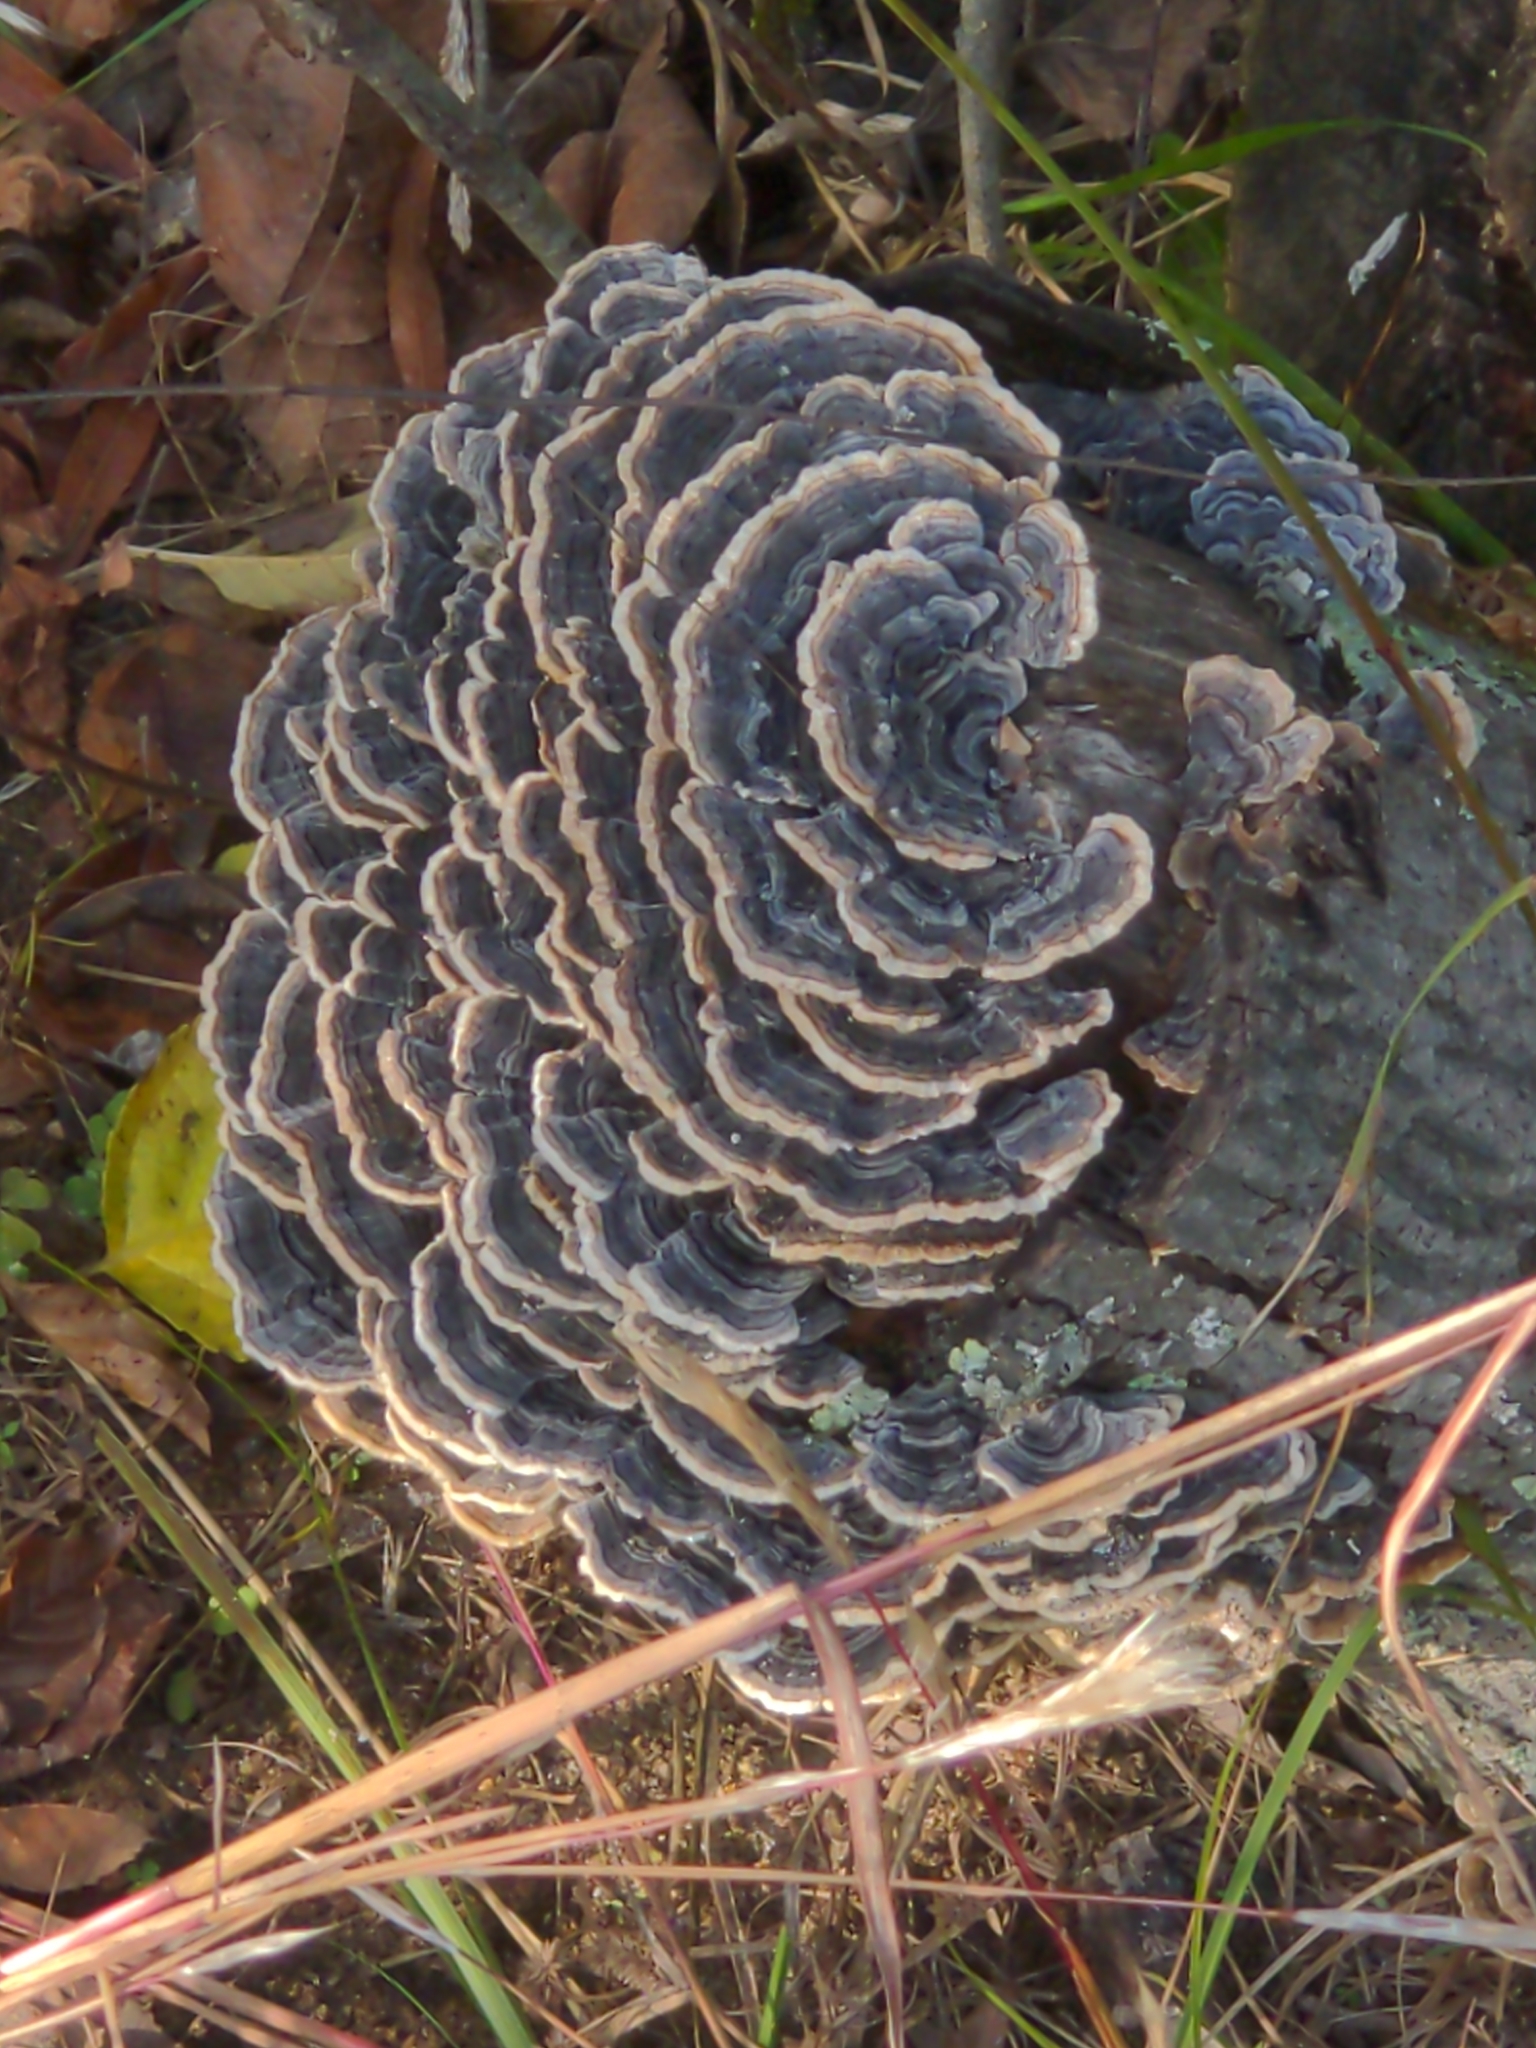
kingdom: Fungi
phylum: Basidiomycota
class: Agaricomycetes
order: Polyporales
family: Polyporaceae
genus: Trametes
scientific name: Trametes versicolor
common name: Turkeytail
